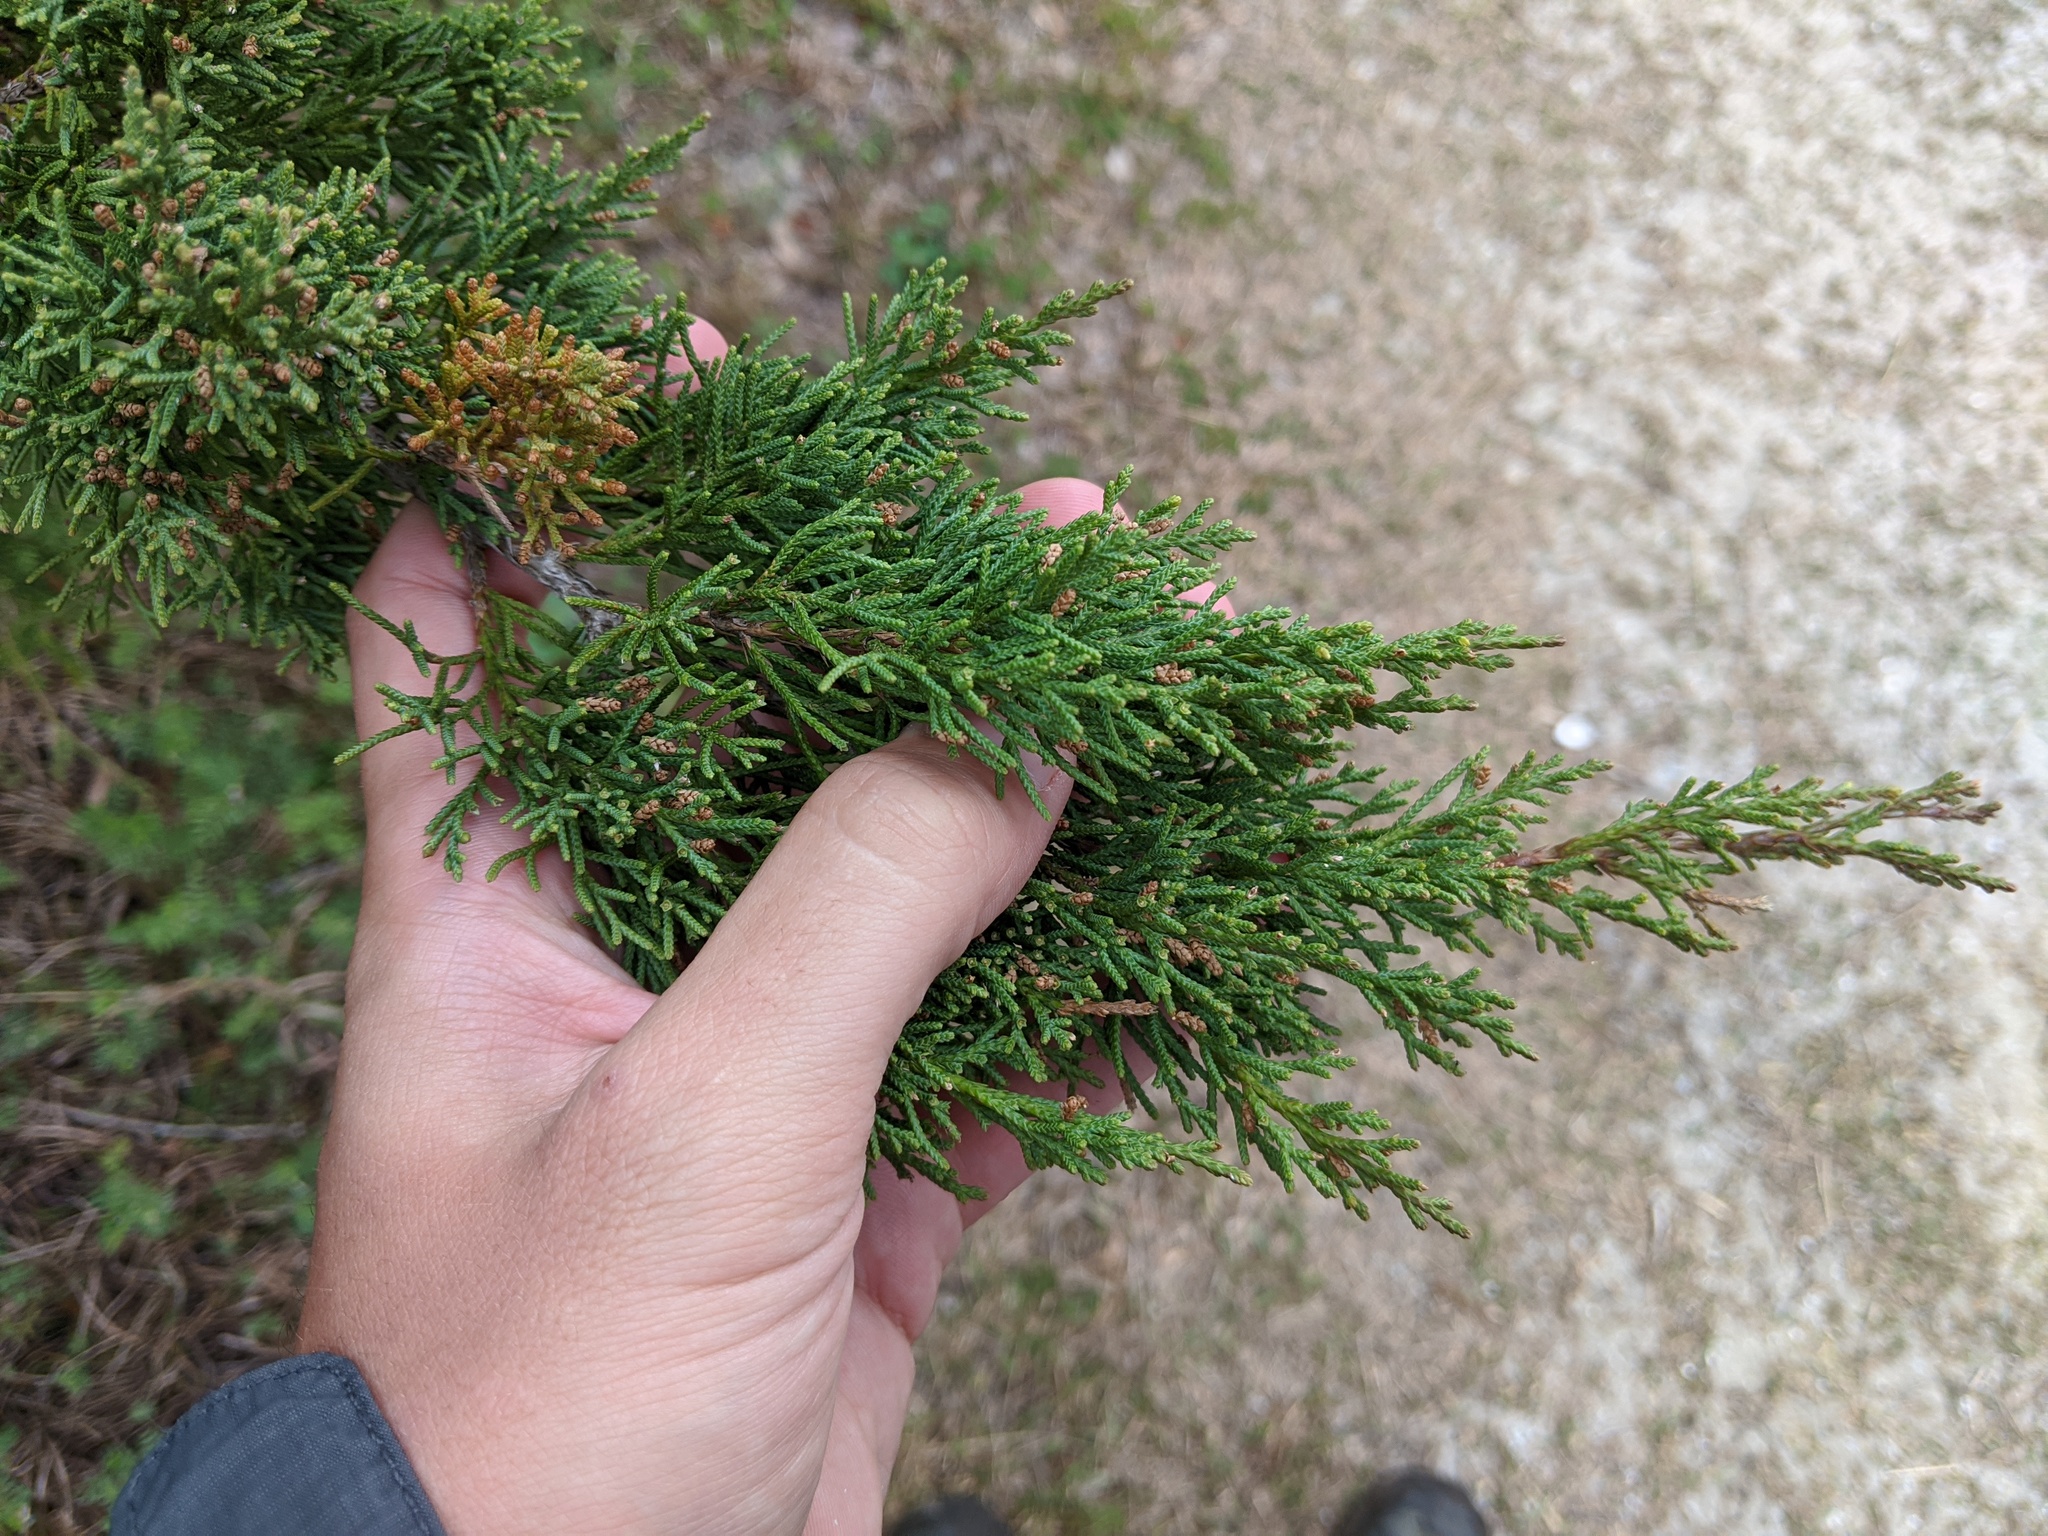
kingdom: Plantae
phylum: Tracheophyta
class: Pinopsida
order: Pinales
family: Cupressaceae
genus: Juniperus
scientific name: Juniperus virginiana
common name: Red juniper
